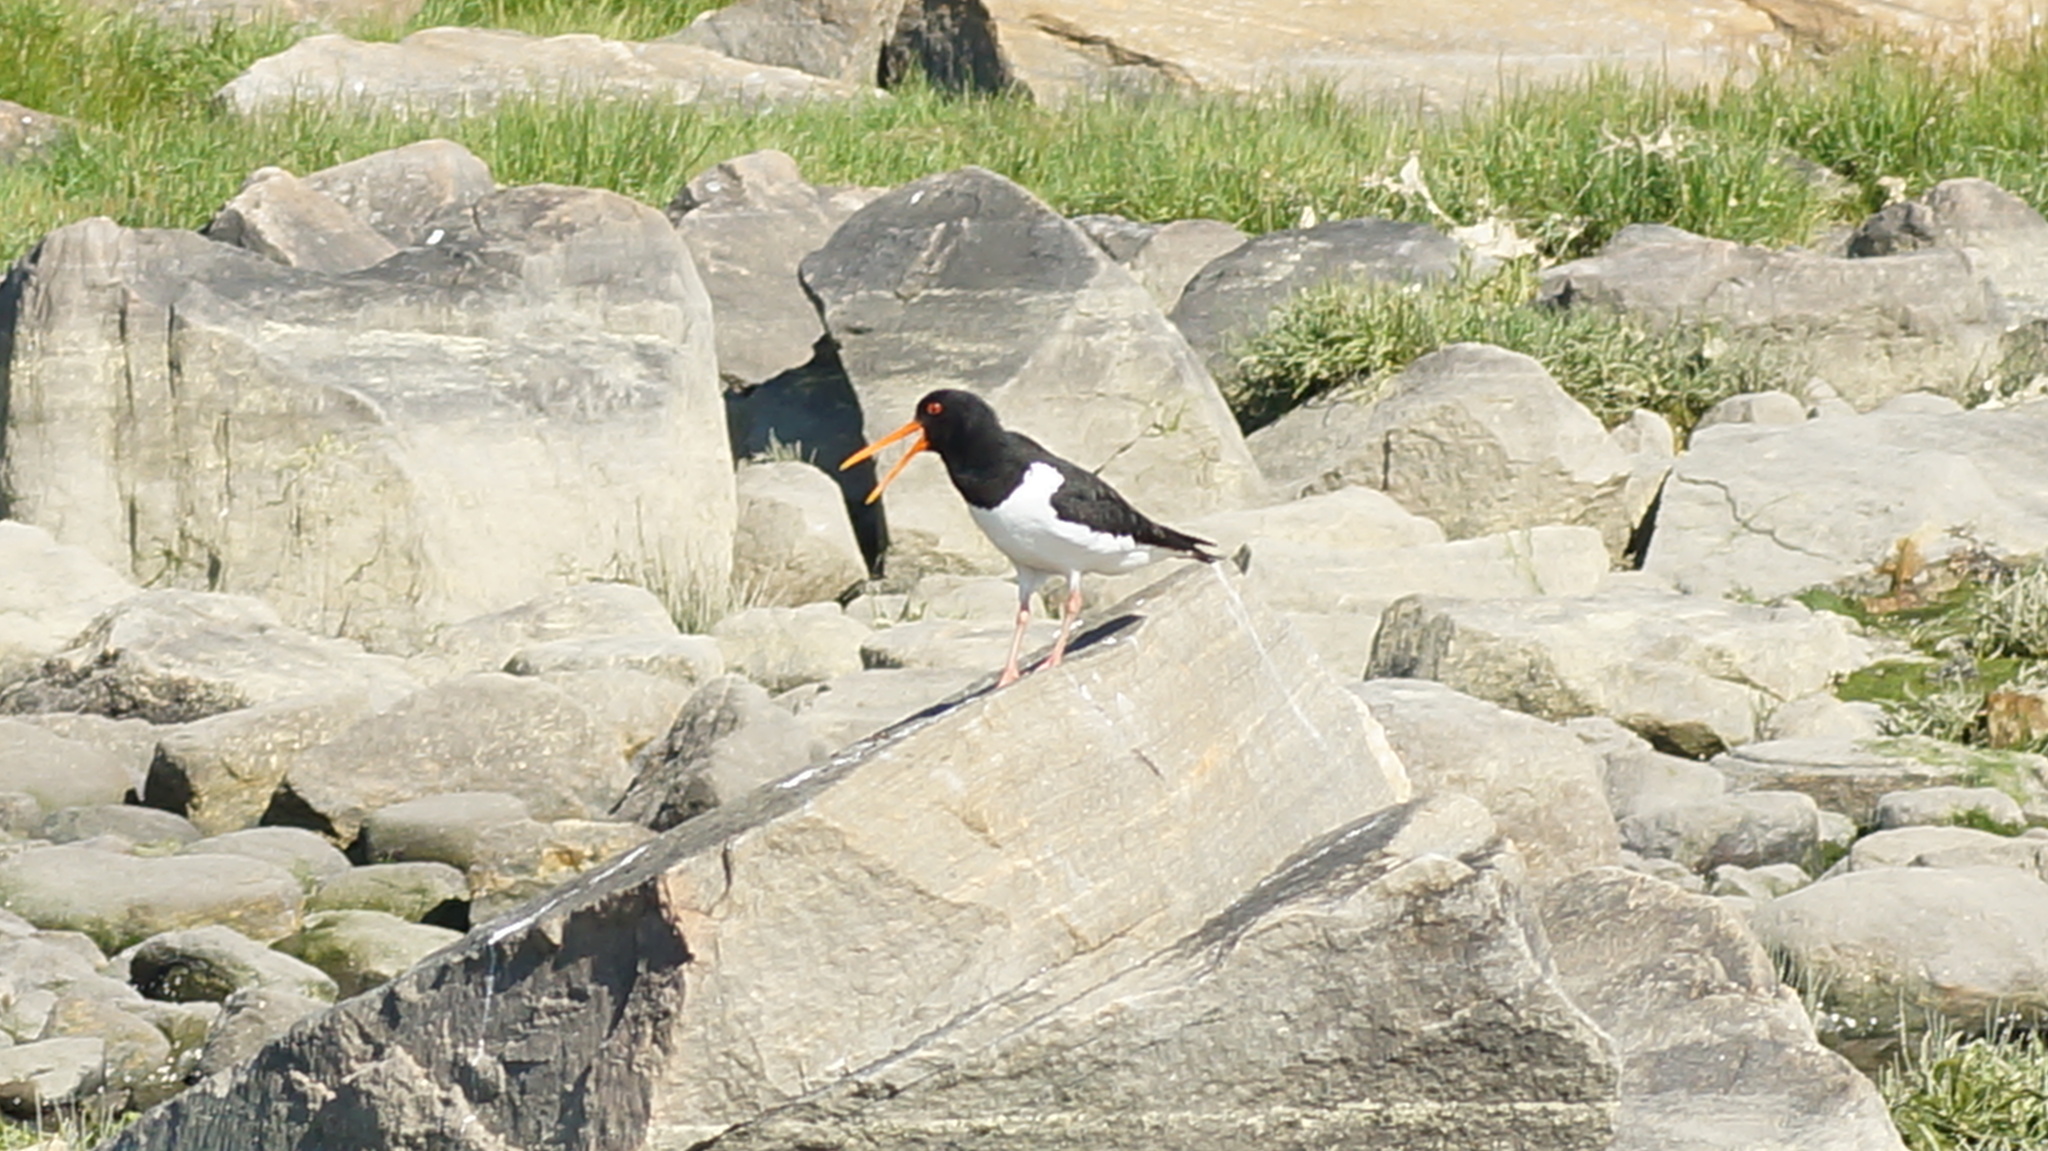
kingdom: Animalia
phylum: Chordata
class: Aves
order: Charadriiformes
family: Haematopodidae
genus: Haematopus
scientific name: Haematopus ostralegus
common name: Eurasian oystercatcher
